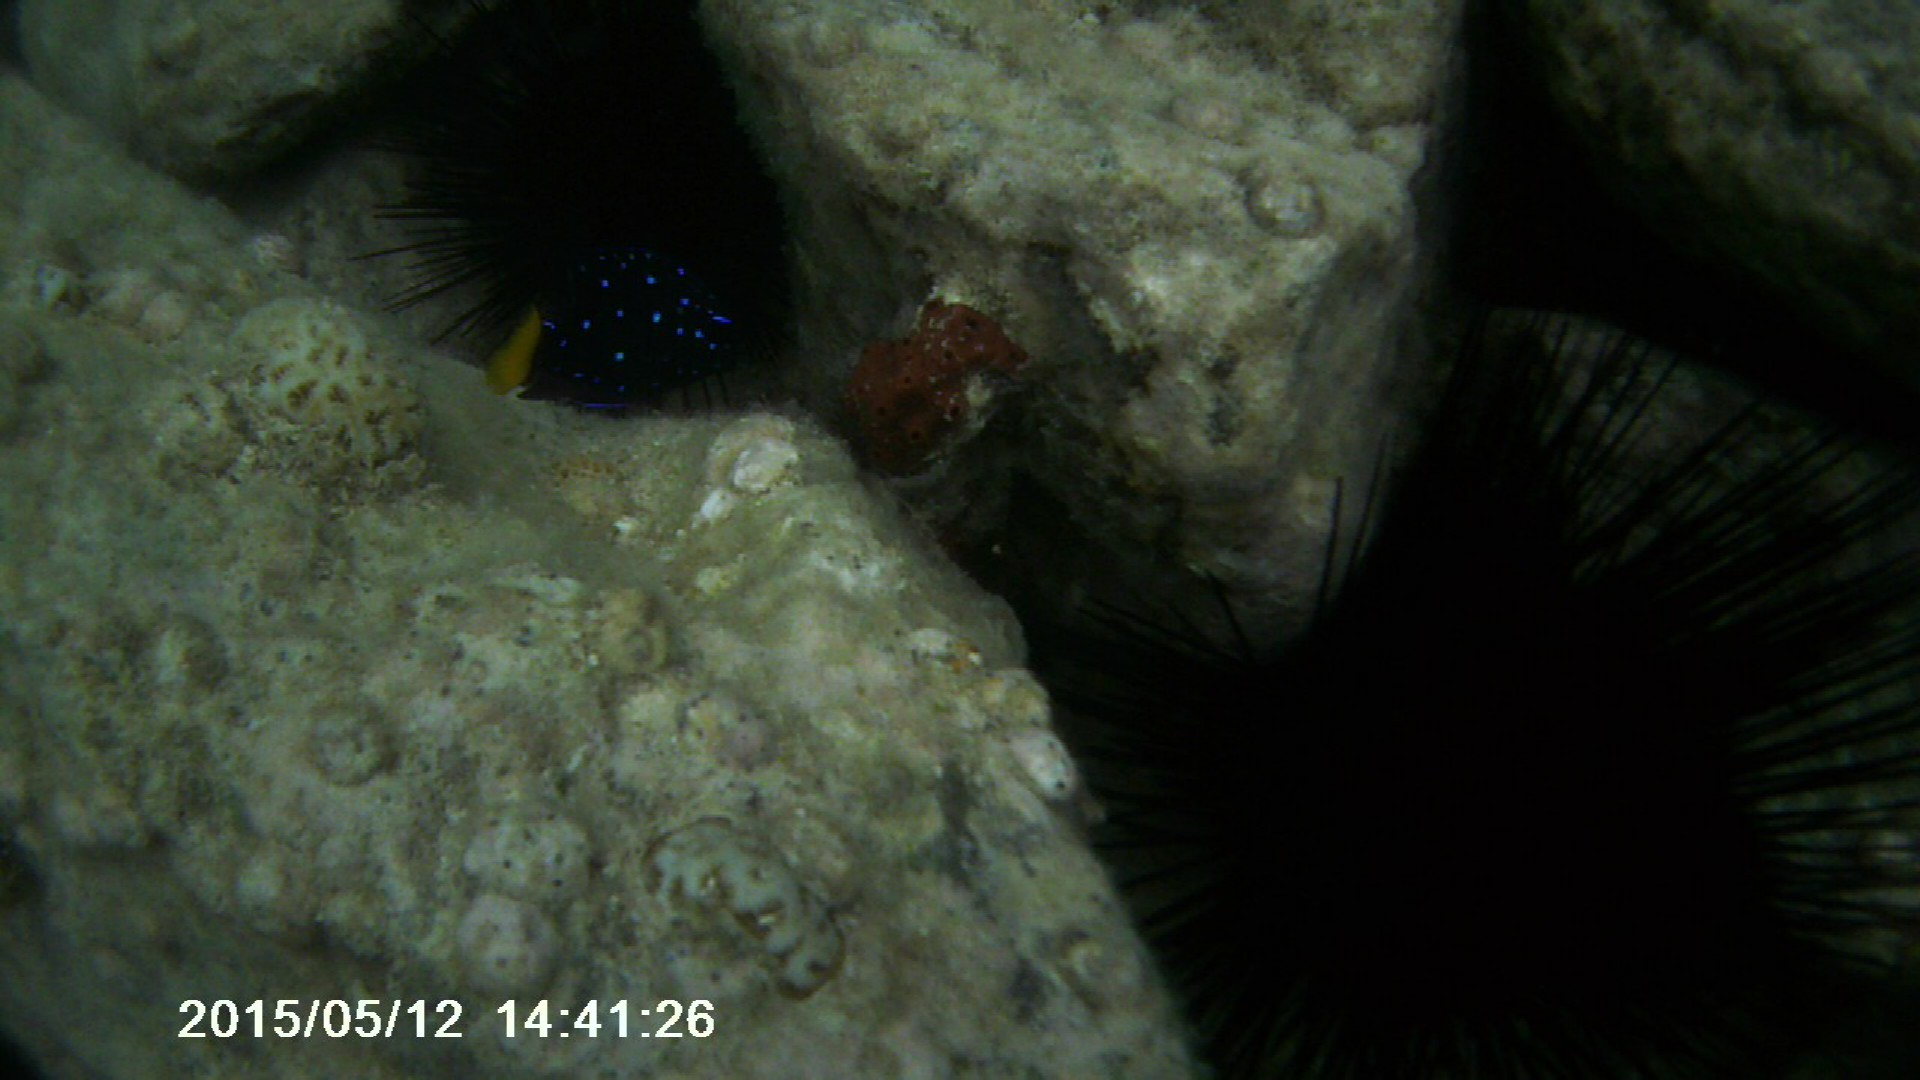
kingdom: Animalia
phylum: Chordata
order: Perciformes
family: Pomacentridae
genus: Microspathodon
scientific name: Microspathodon chrysurus
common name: Yellowtail damselfish
